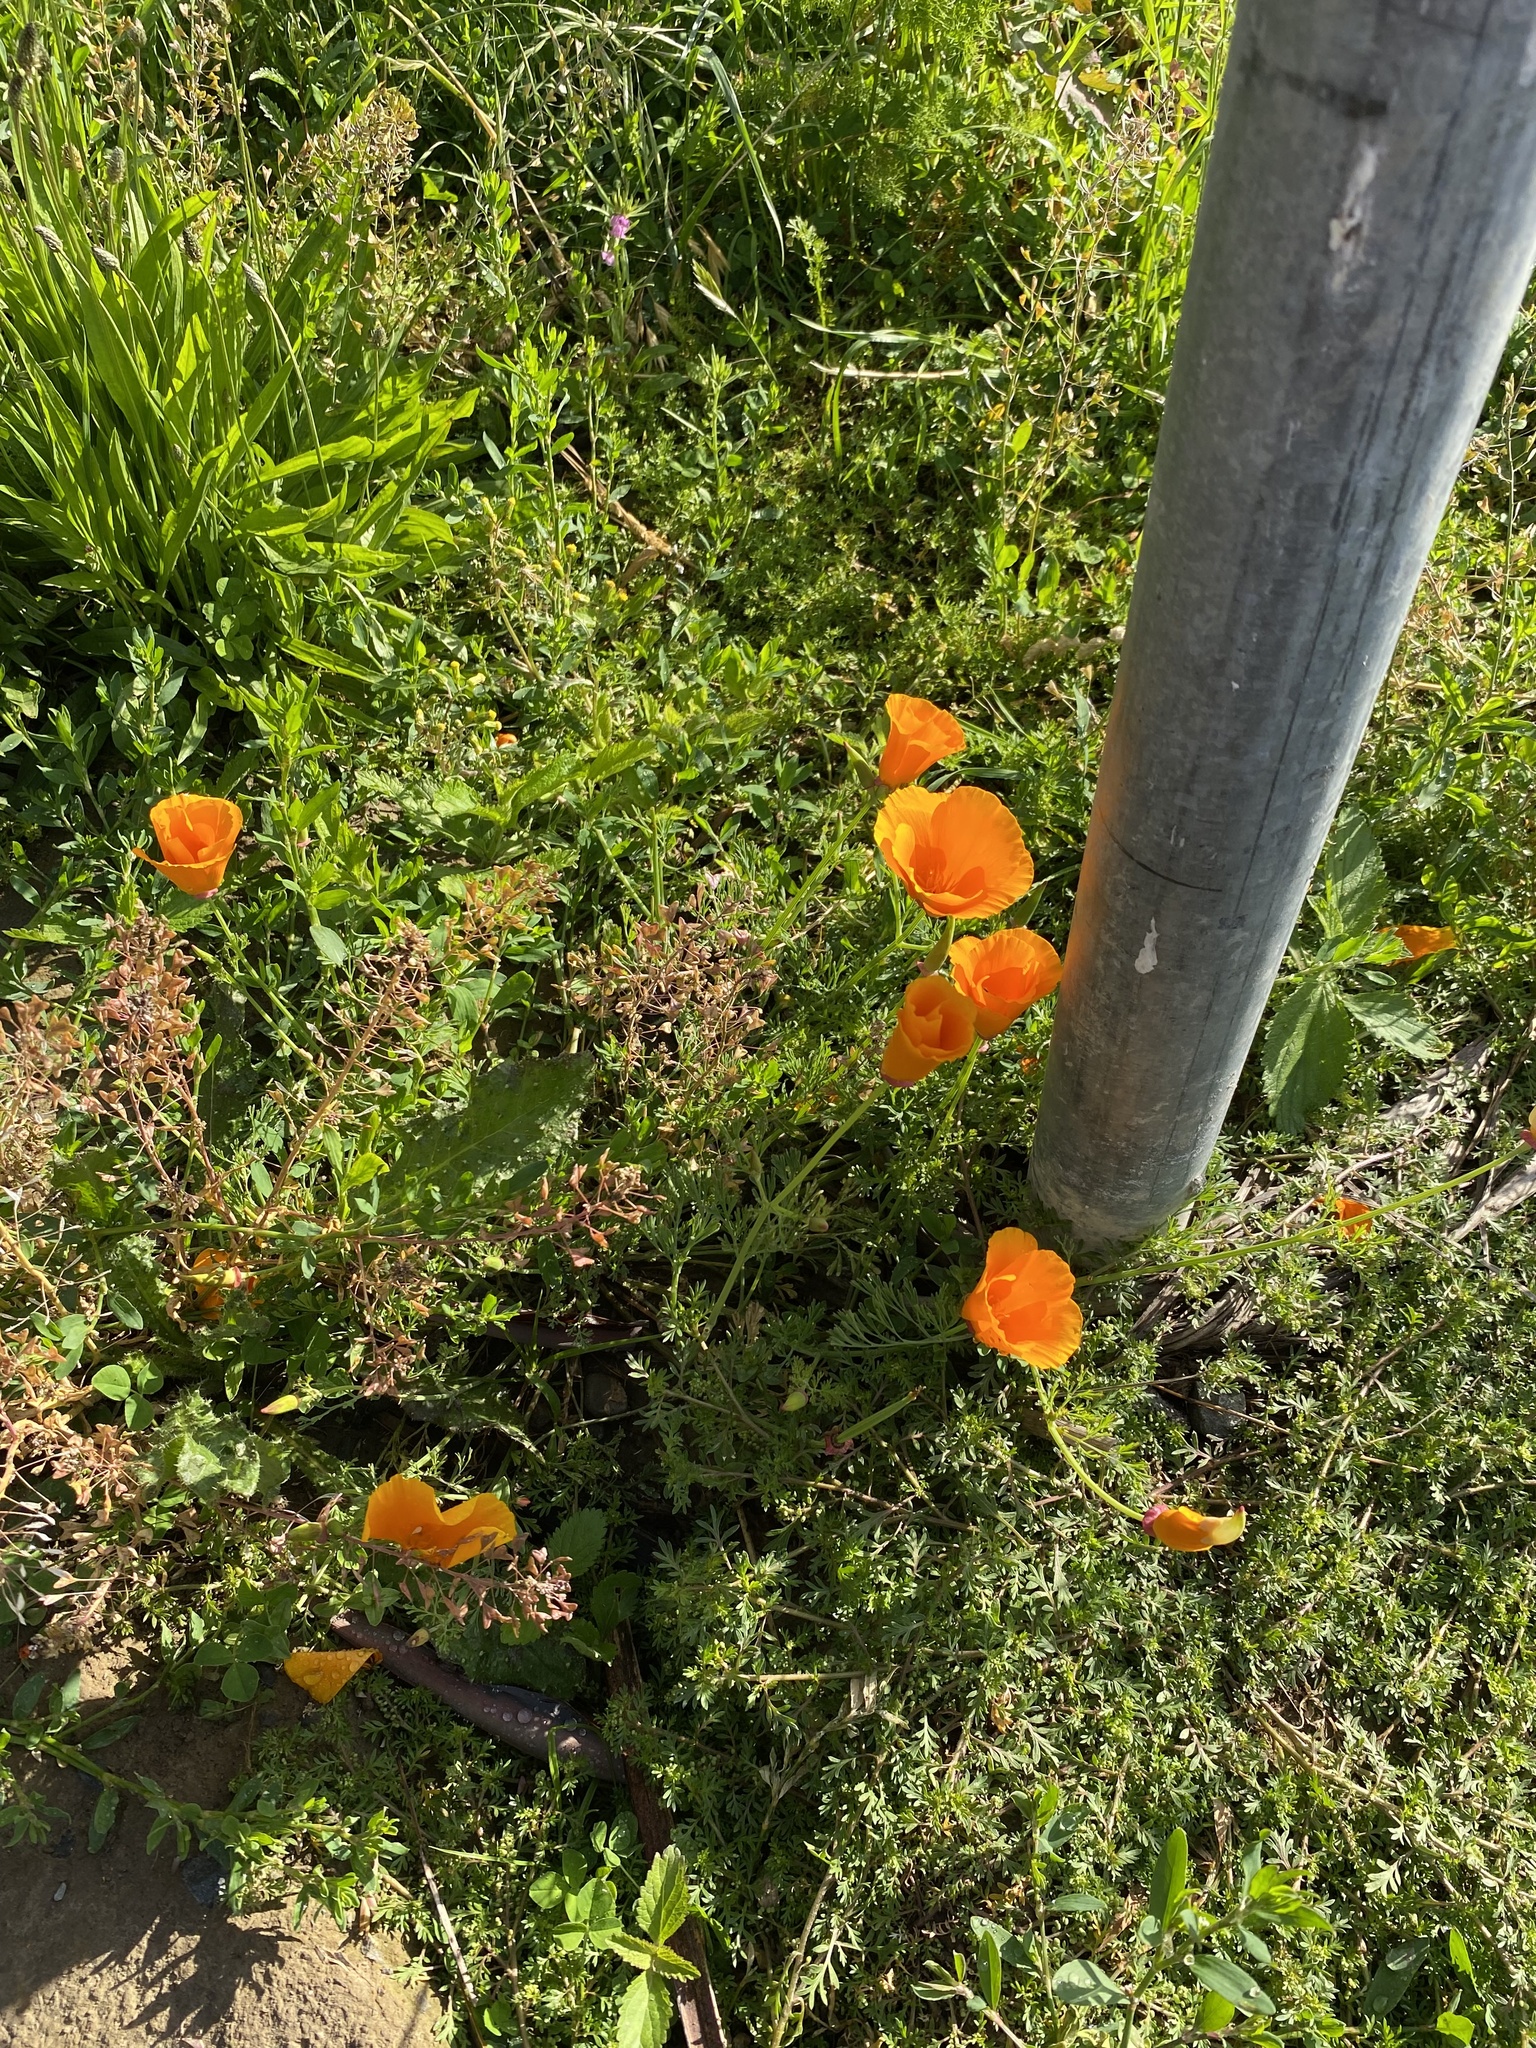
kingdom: Plantae
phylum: Tracheophyta
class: Magnoliopsida
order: Ranunculales
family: Papaveraceae
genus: Eschscholzia
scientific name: Eschscholzia californica
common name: California poppy
